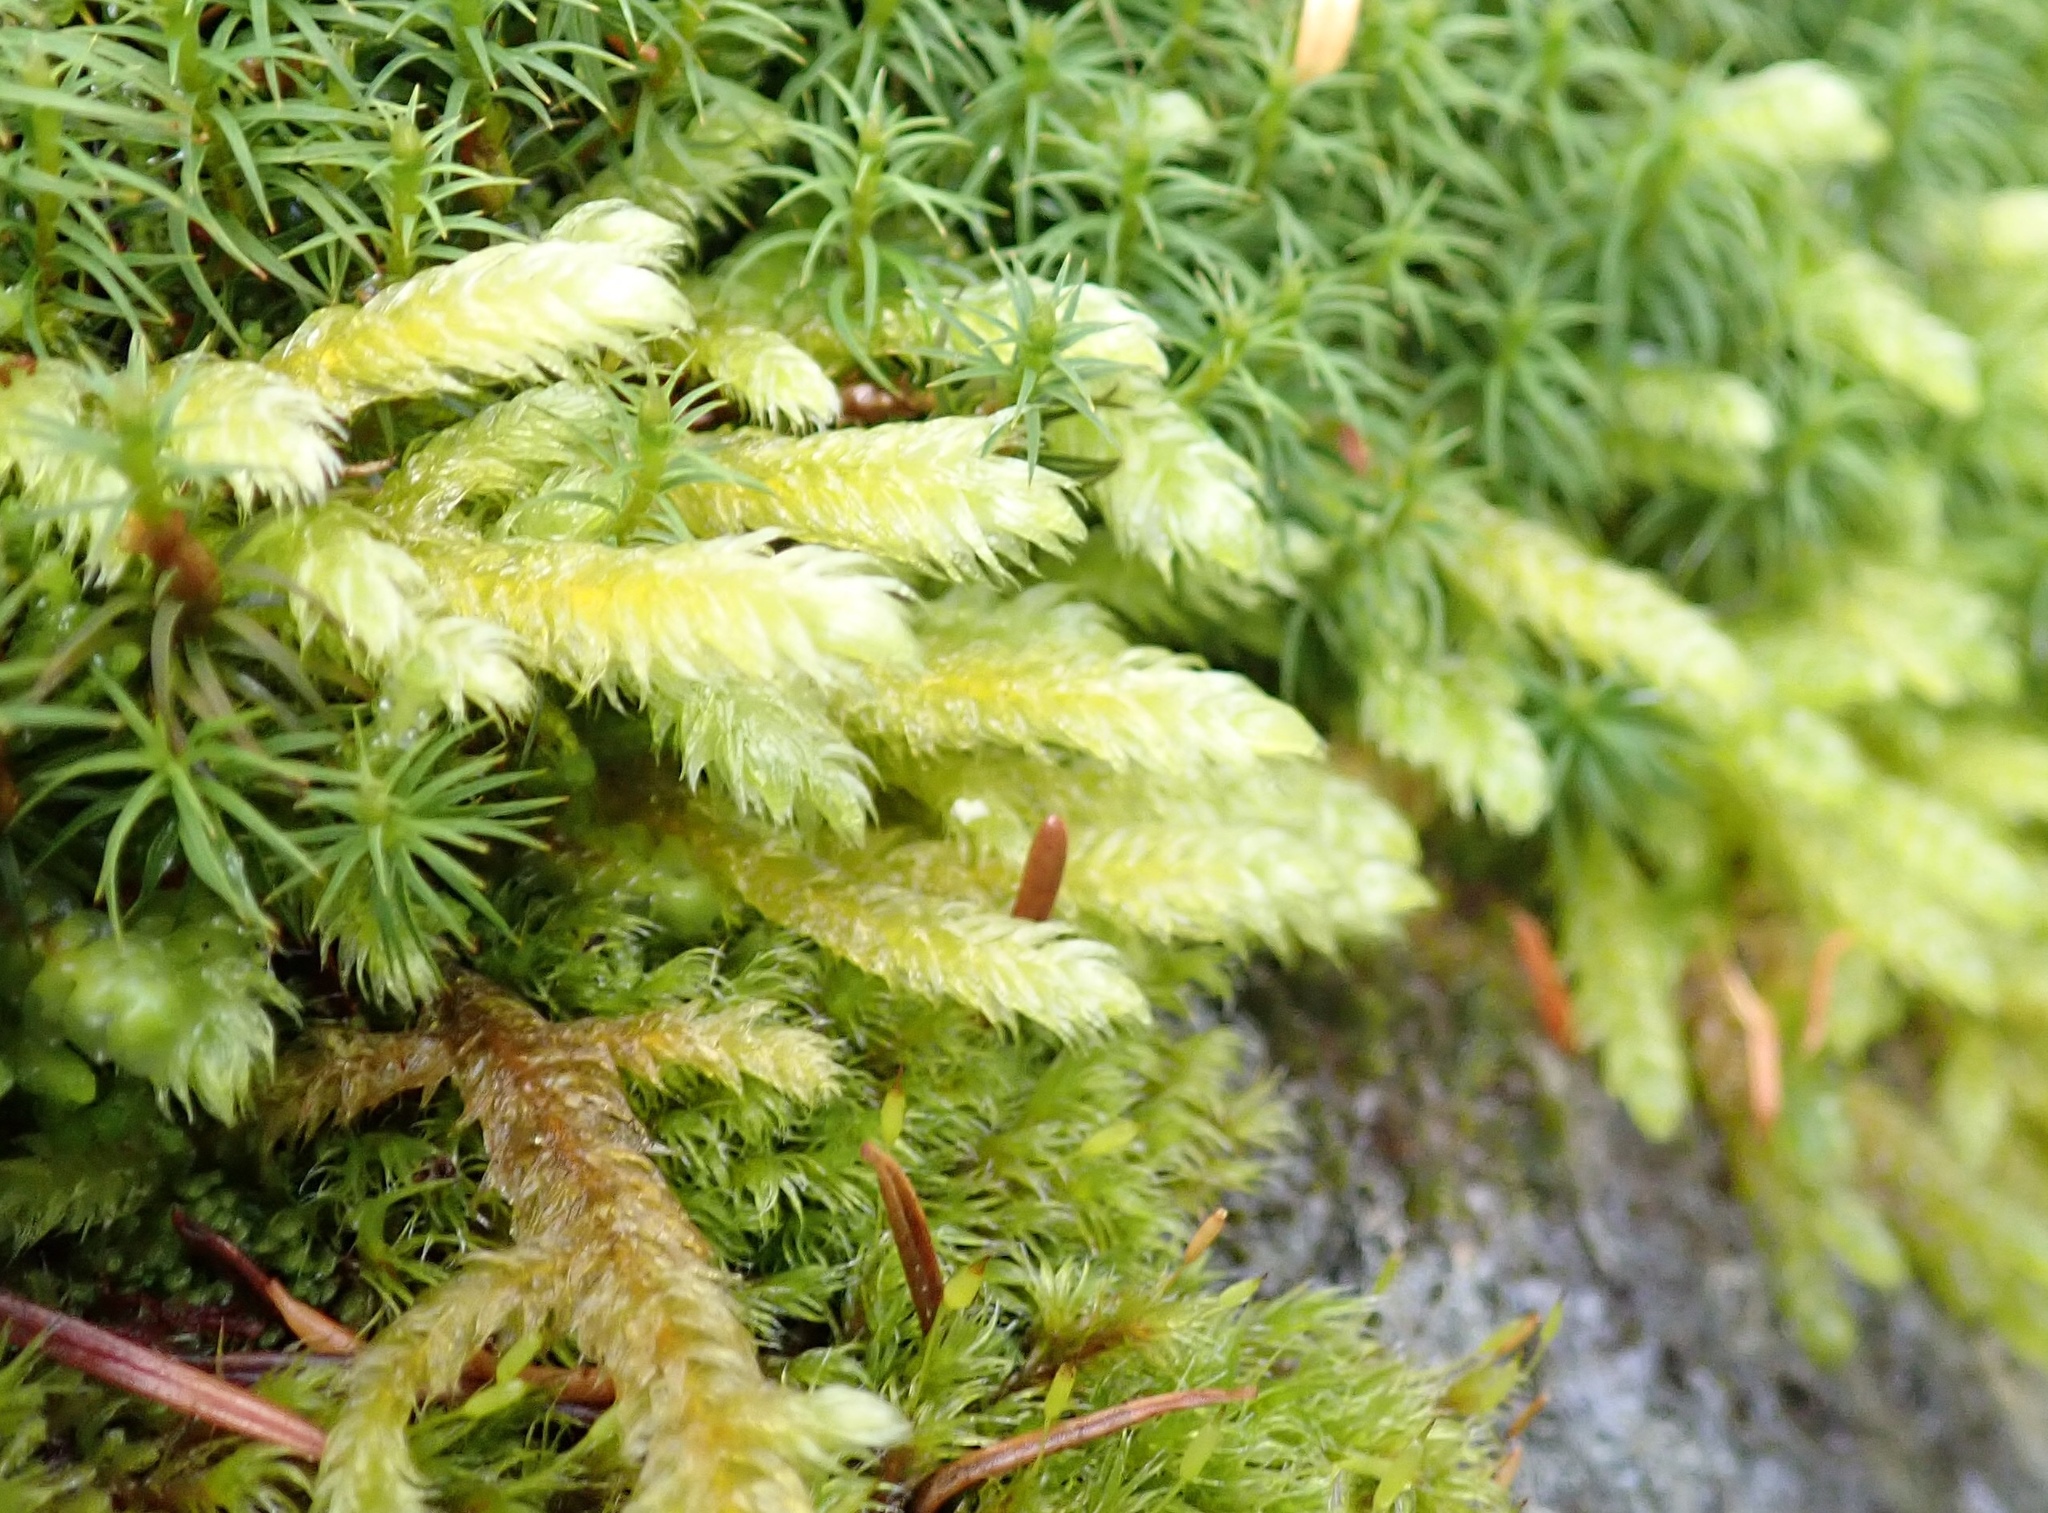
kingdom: Plantae
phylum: Bryophyta
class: Bryopsida
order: Hypnales
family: Hylocomiaceae
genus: Rhytidiopsis
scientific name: Rhytidiopsis robusta
